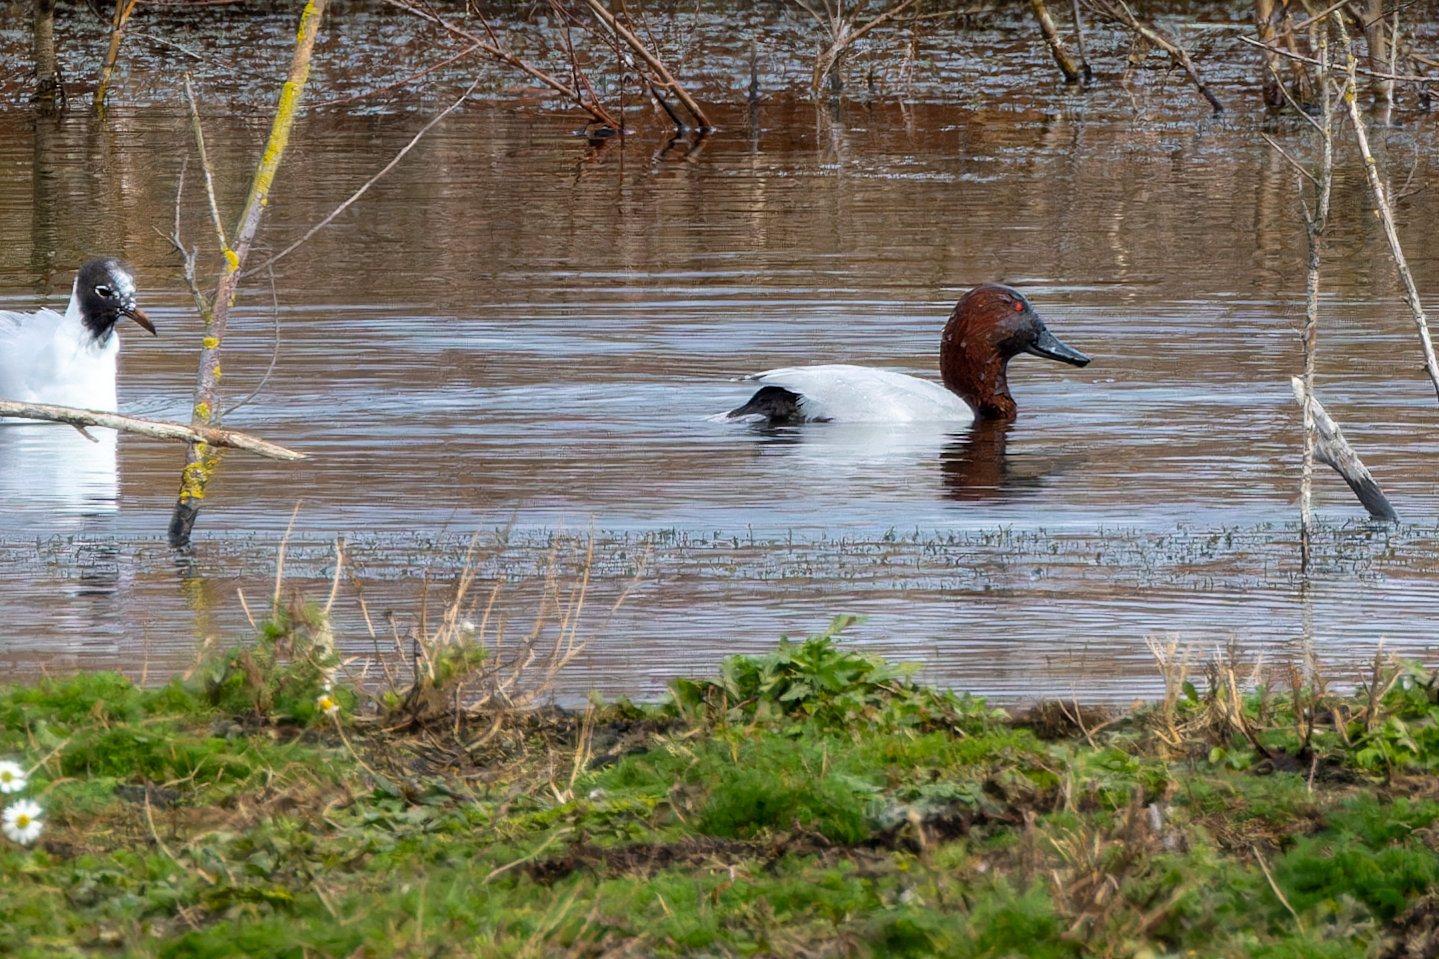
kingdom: Animalia
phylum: Chordata
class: Aves
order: Anseriformes
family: Anatidae
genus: Aythya
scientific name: Aythya ferina
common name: Common pochard
